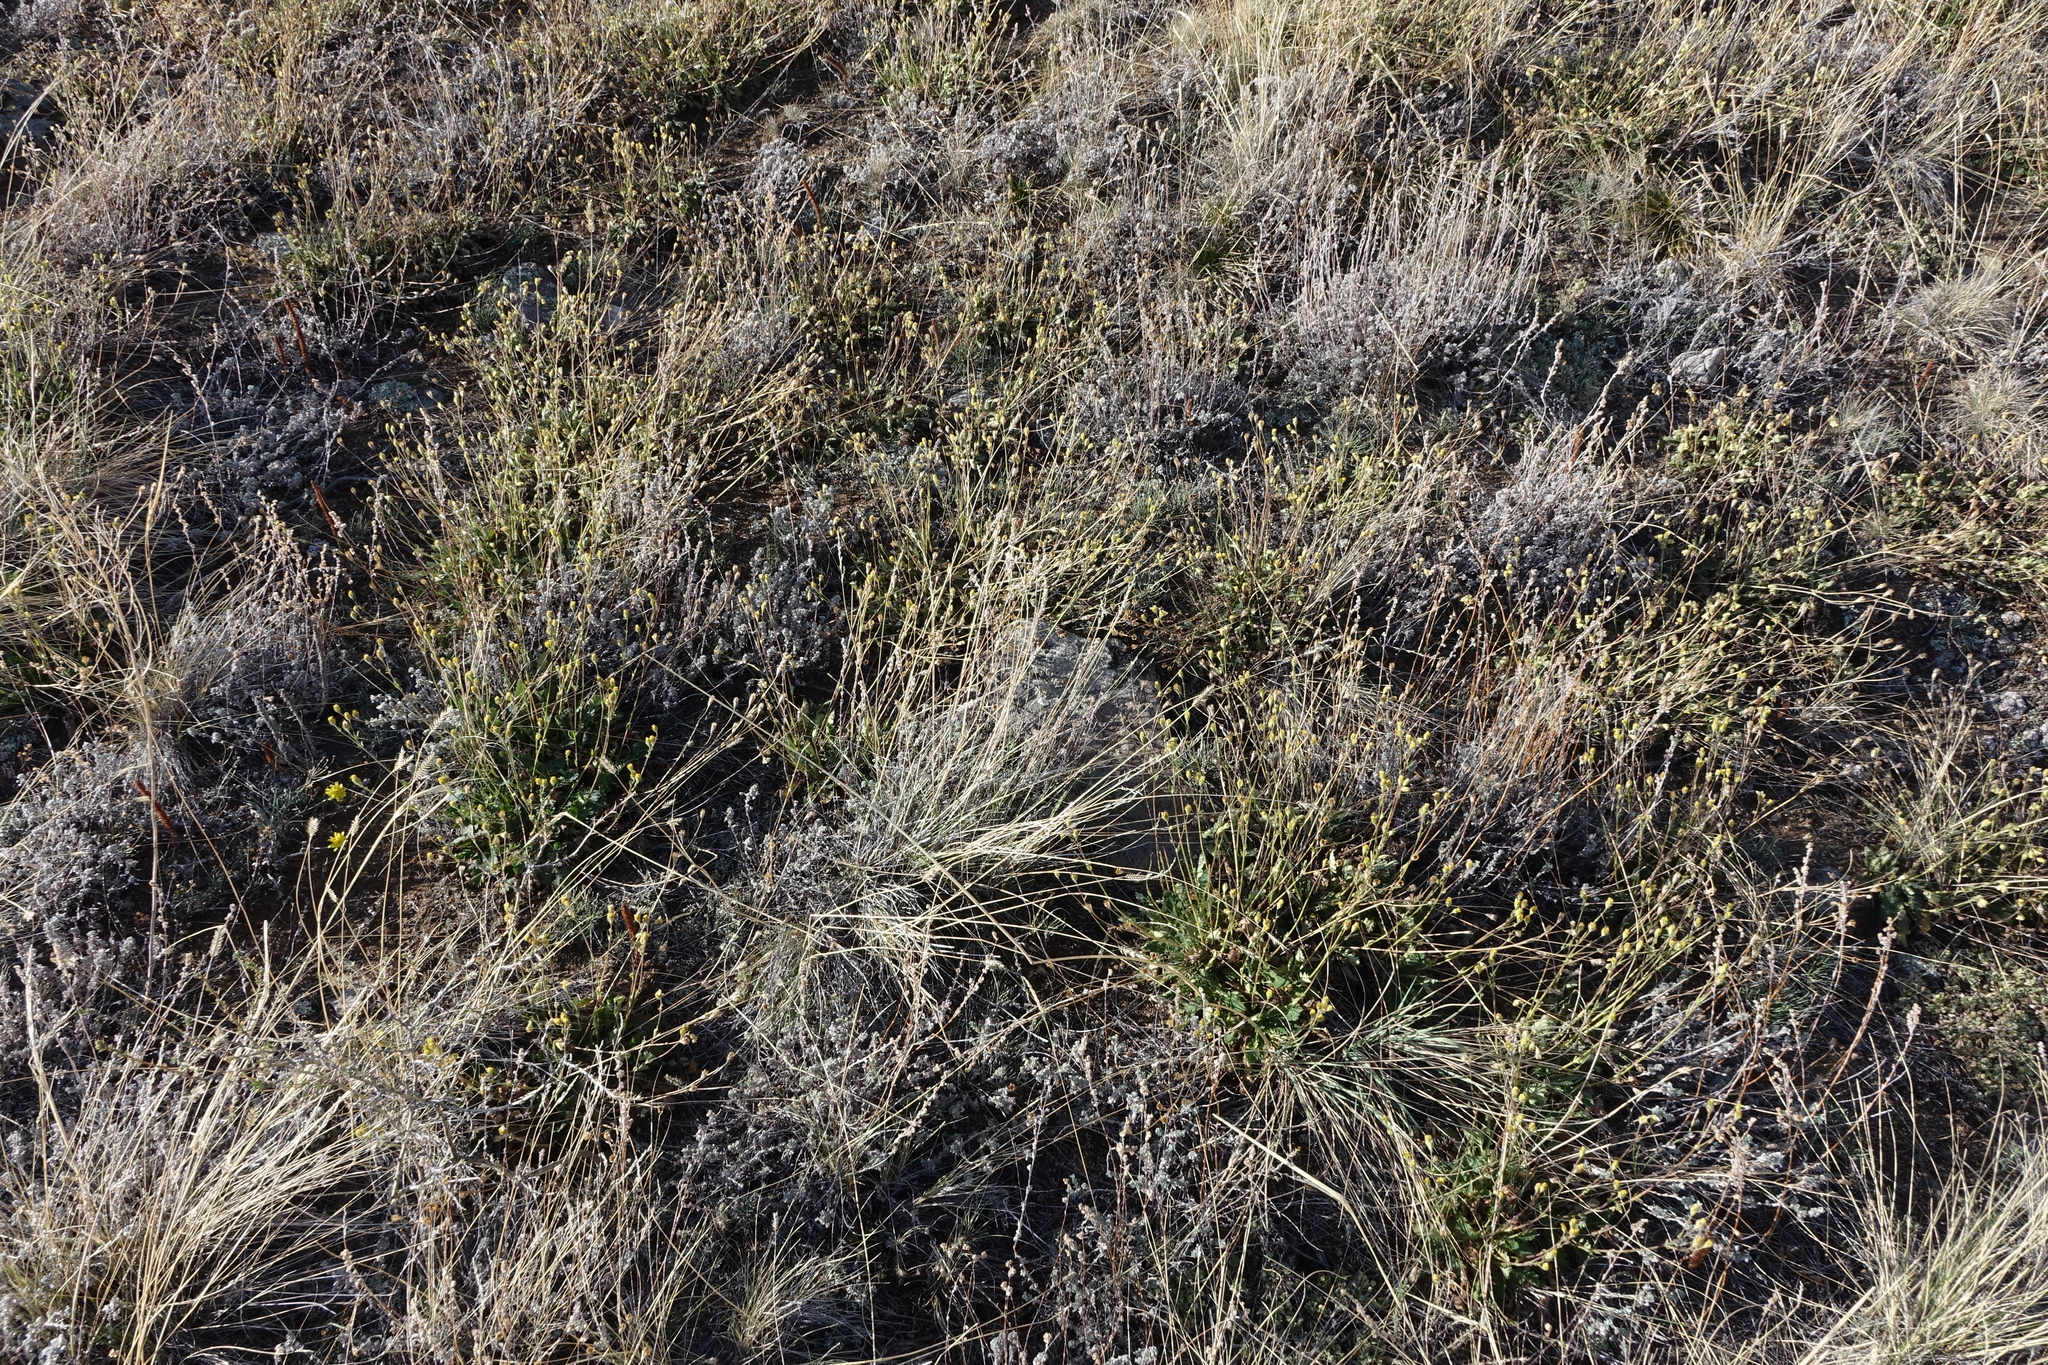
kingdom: Plantae
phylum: Tracheophyta
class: Magnoliopsida
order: Rosales
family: Rosaceae
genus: Geum
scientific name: Geum geoides
